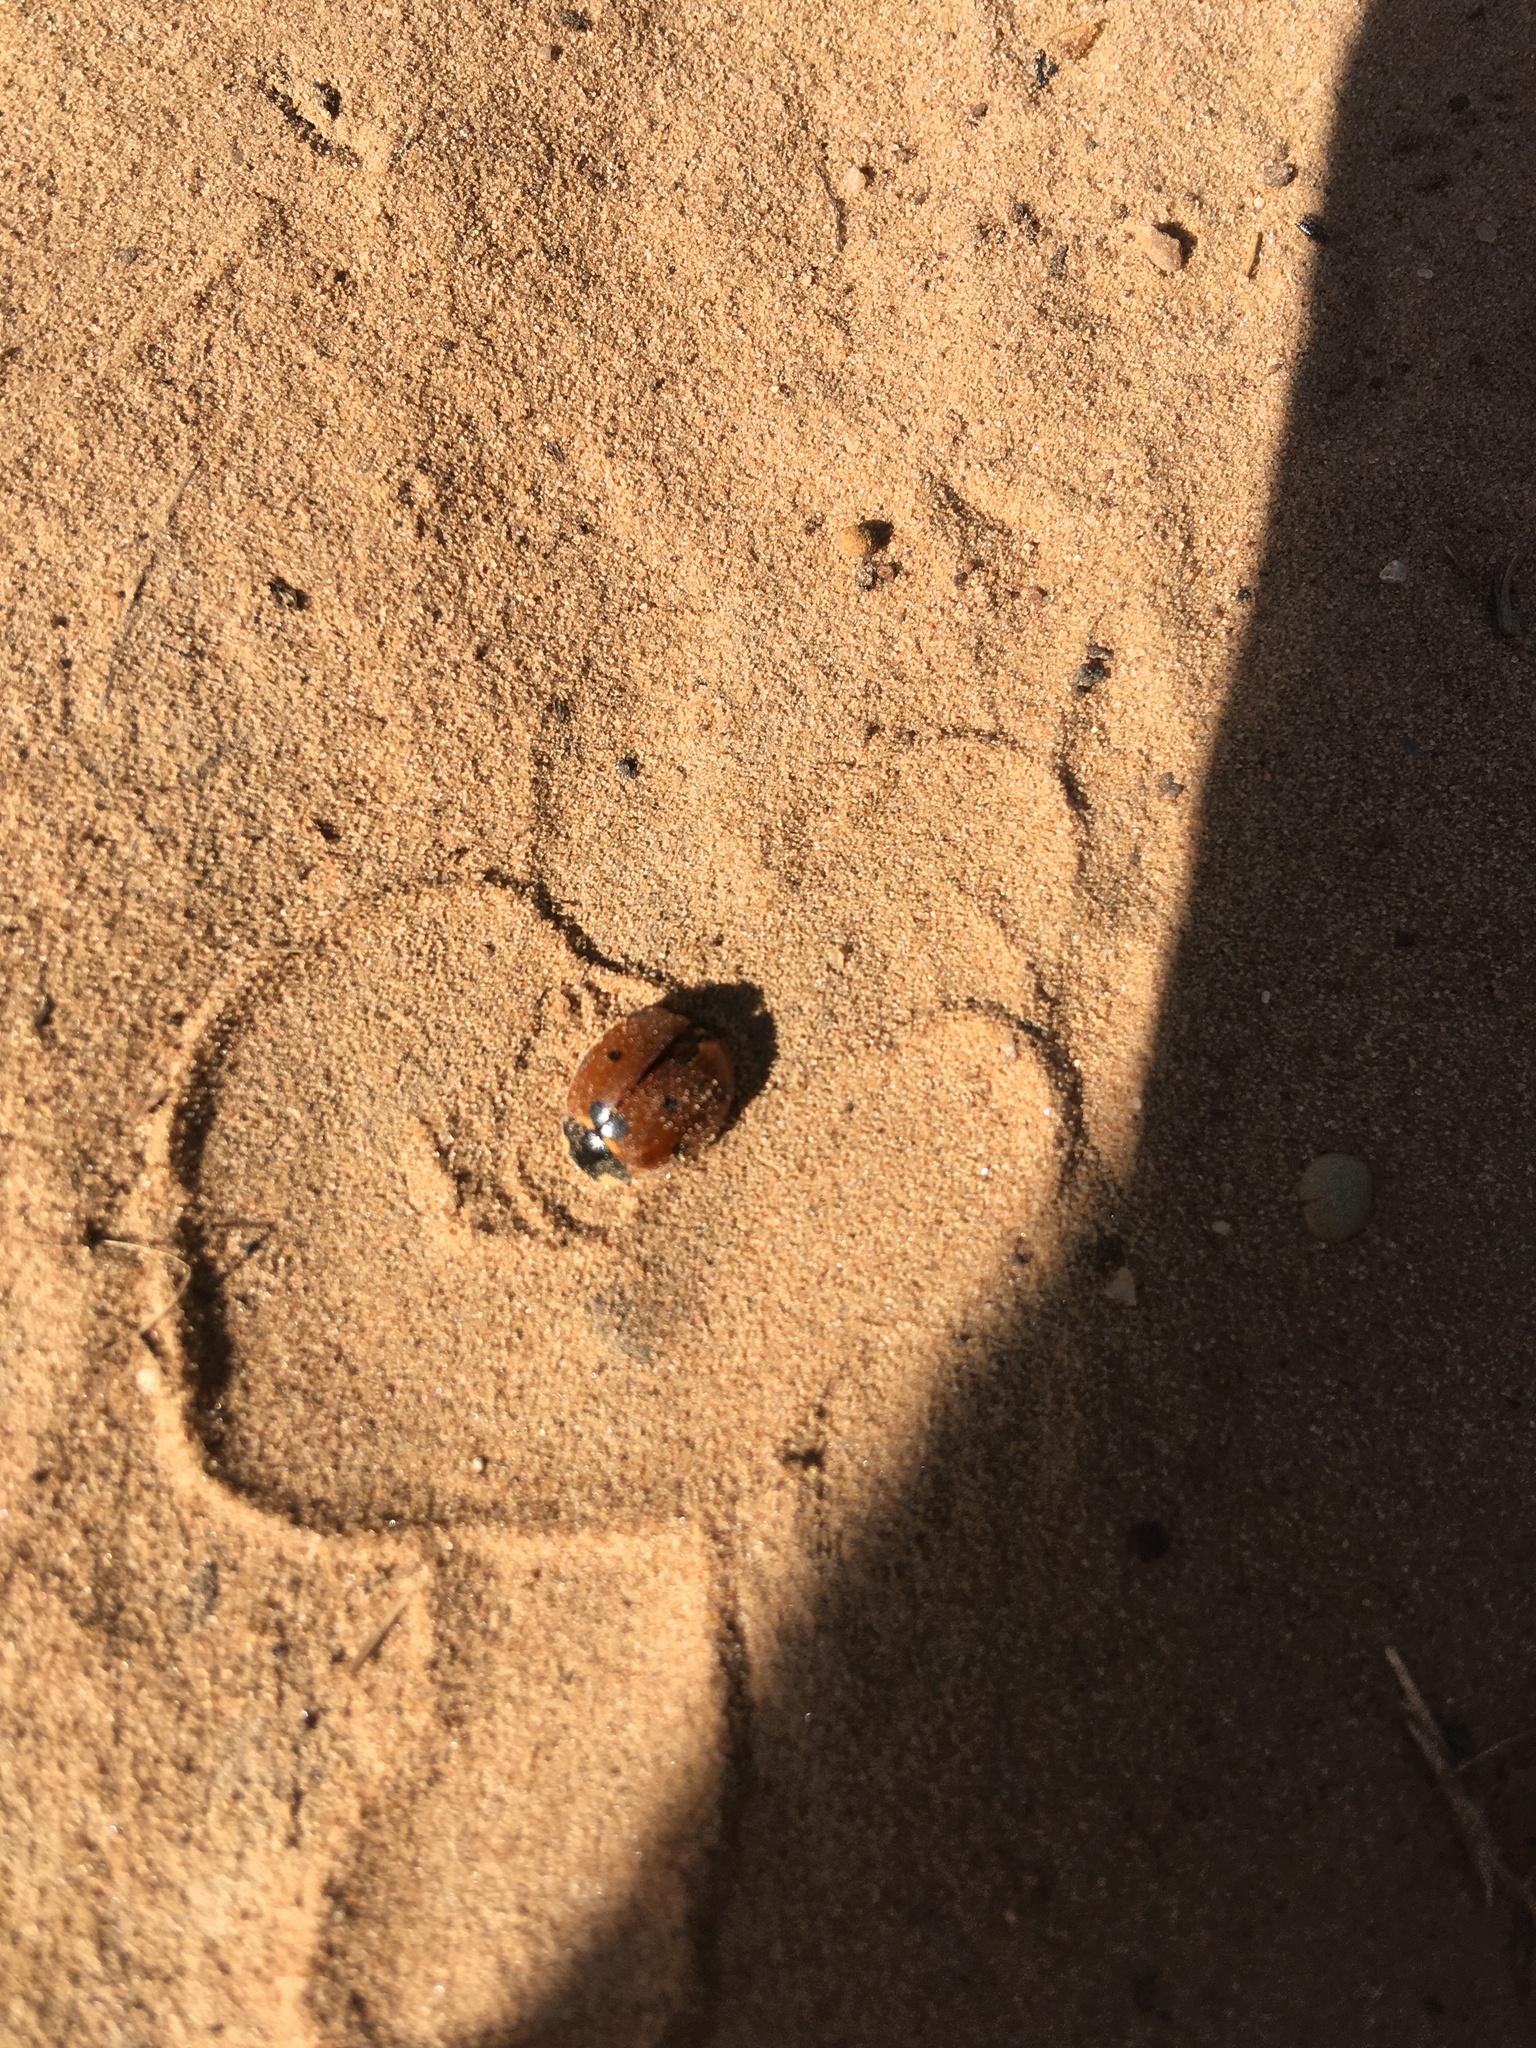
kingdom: Animalia
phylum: Arthropoda
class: Insecta
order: Coleoptera
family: Coccinellidae
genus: Coccinella
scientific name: Coccinella septempunctata
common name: Sevenspotted lady beetle
